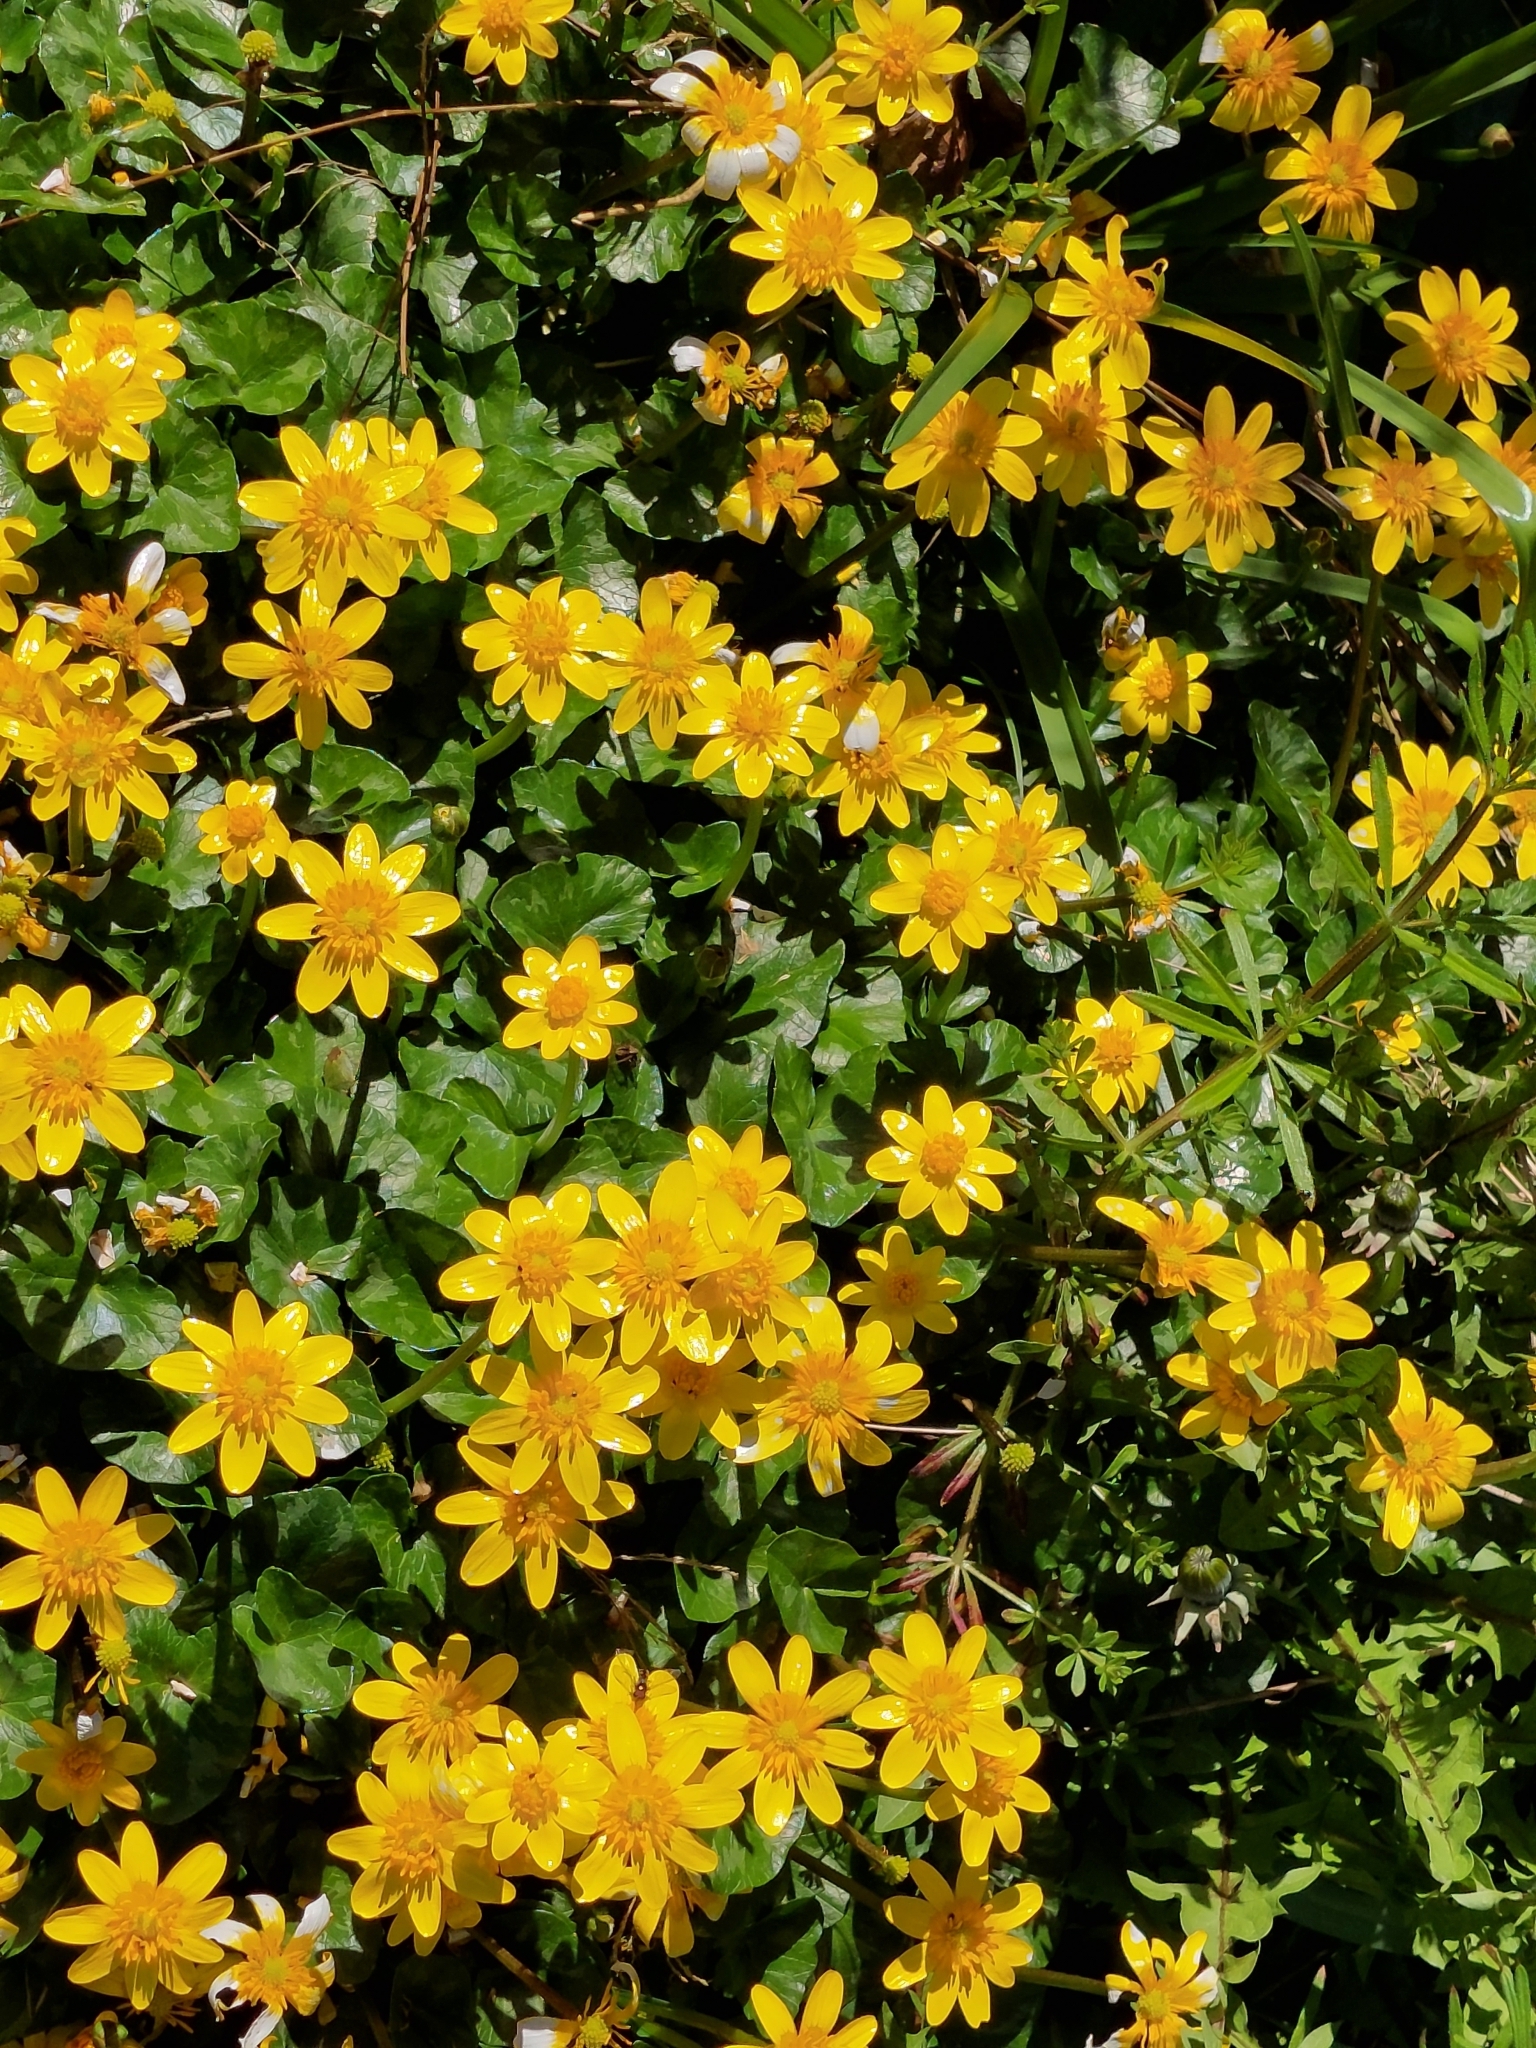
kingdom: Plantae
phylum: Tracheophyta
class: Magnoliopsida
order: Ranunculales
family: Ranunculaceae
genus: Ficaria
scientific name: Ficaria verna
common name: Lesser celandine
